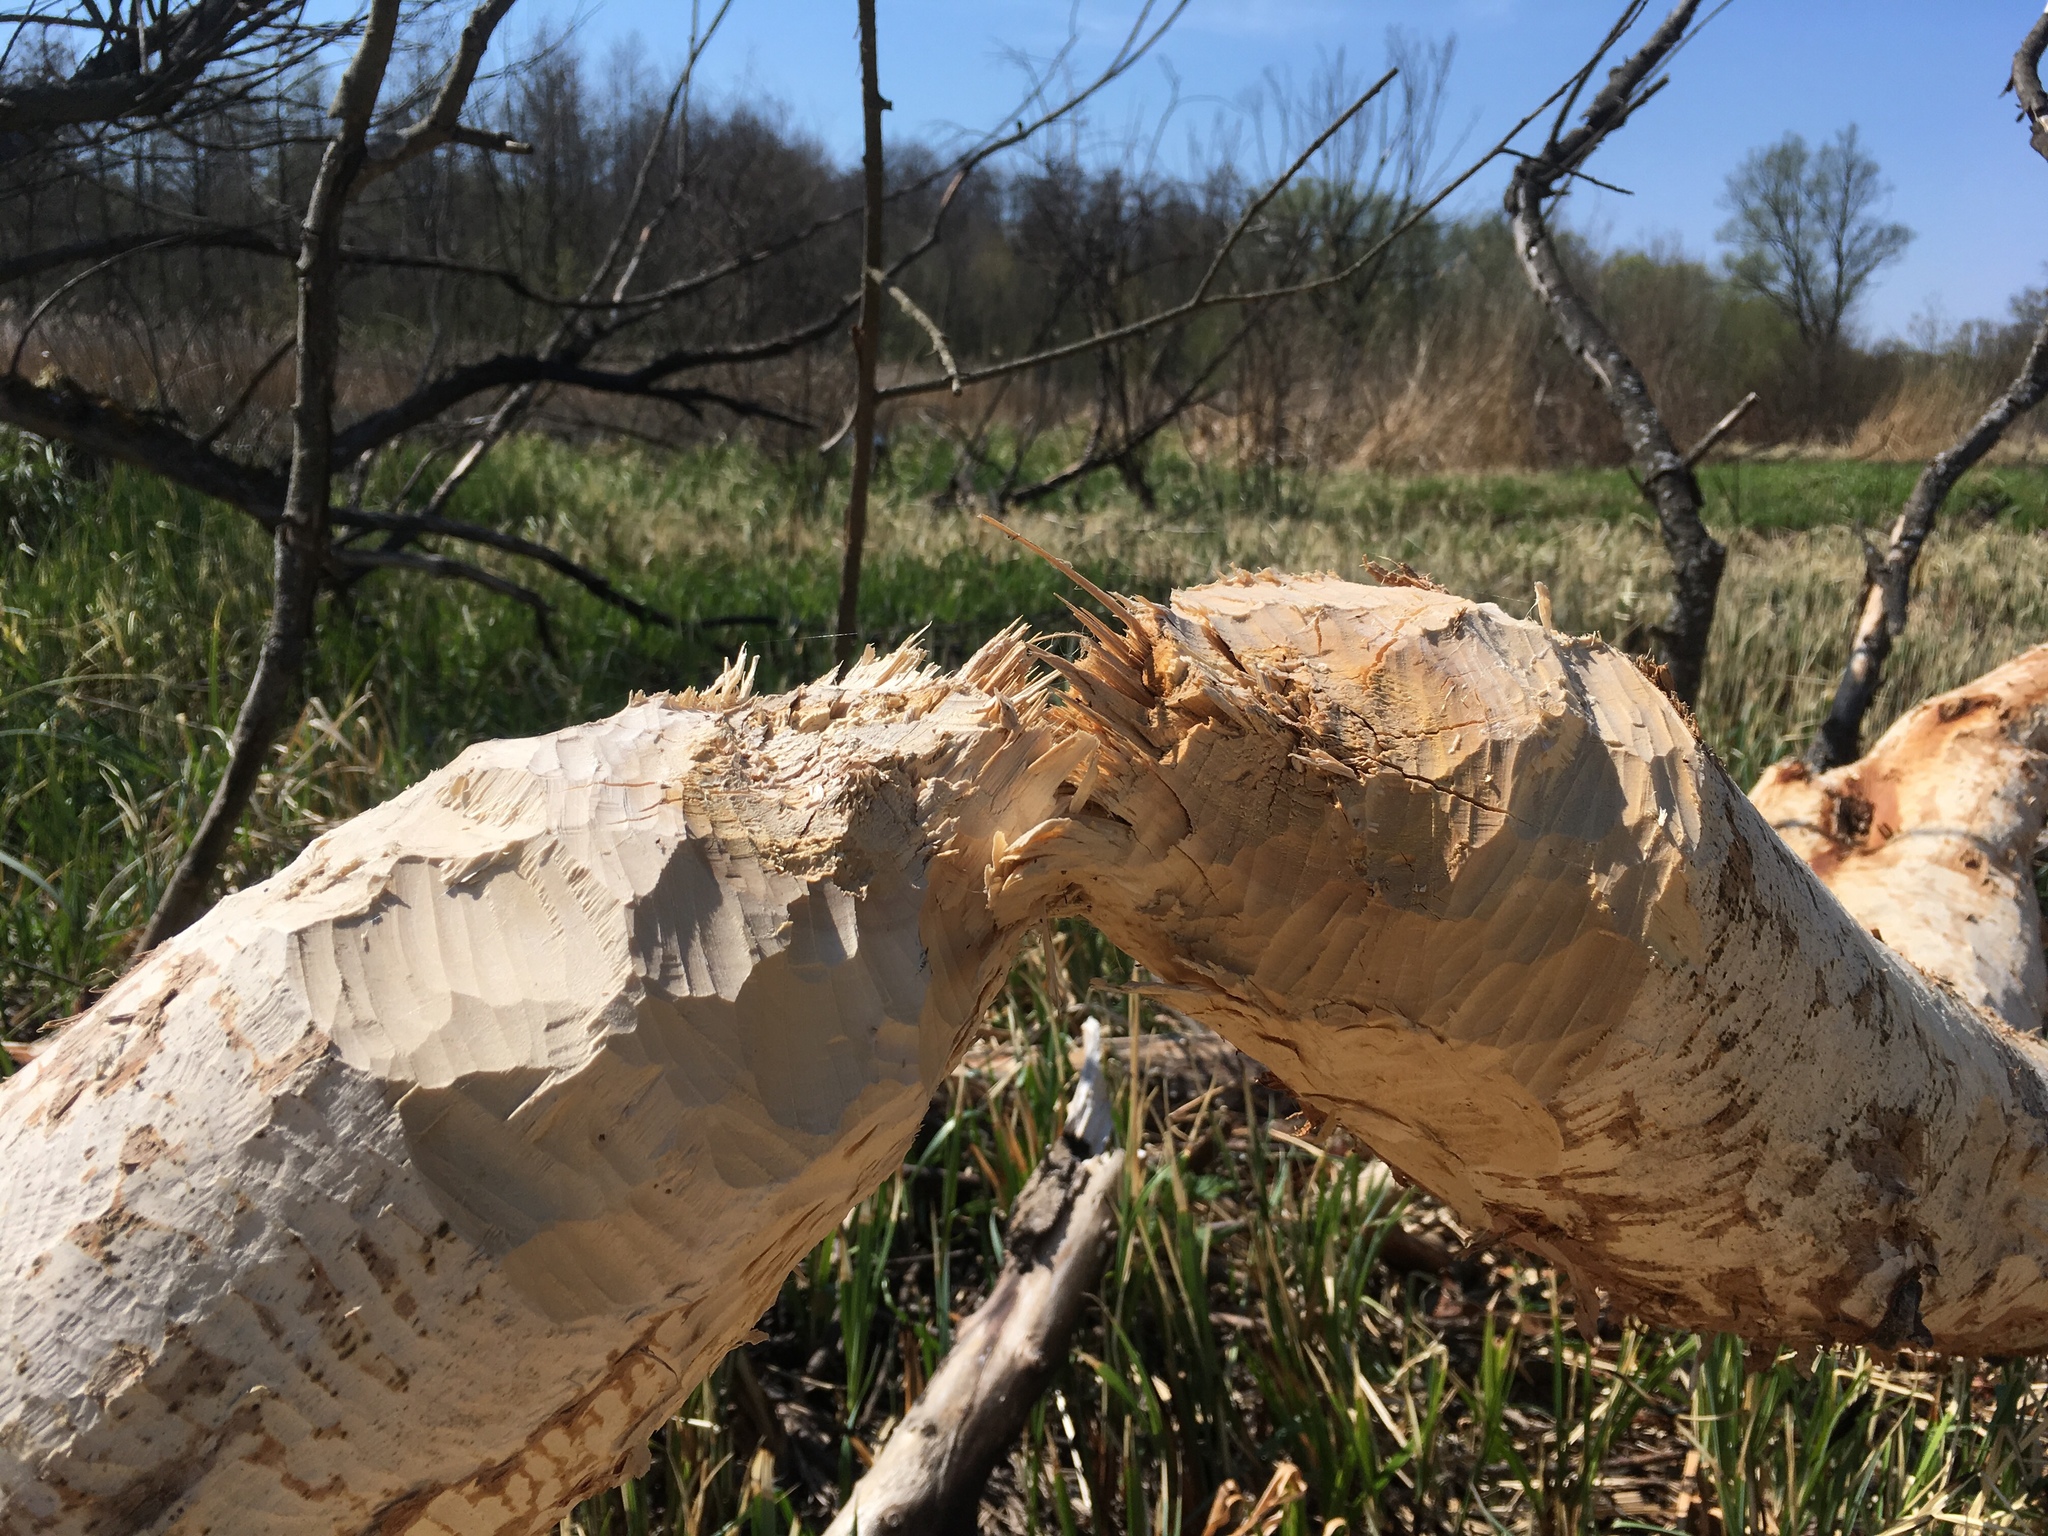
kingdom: Animalia
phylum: Chordata
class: Mammalia
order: Rodentia
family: Castoridae
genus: Castor
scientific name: Castor fiber
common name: Eurasian beaver
